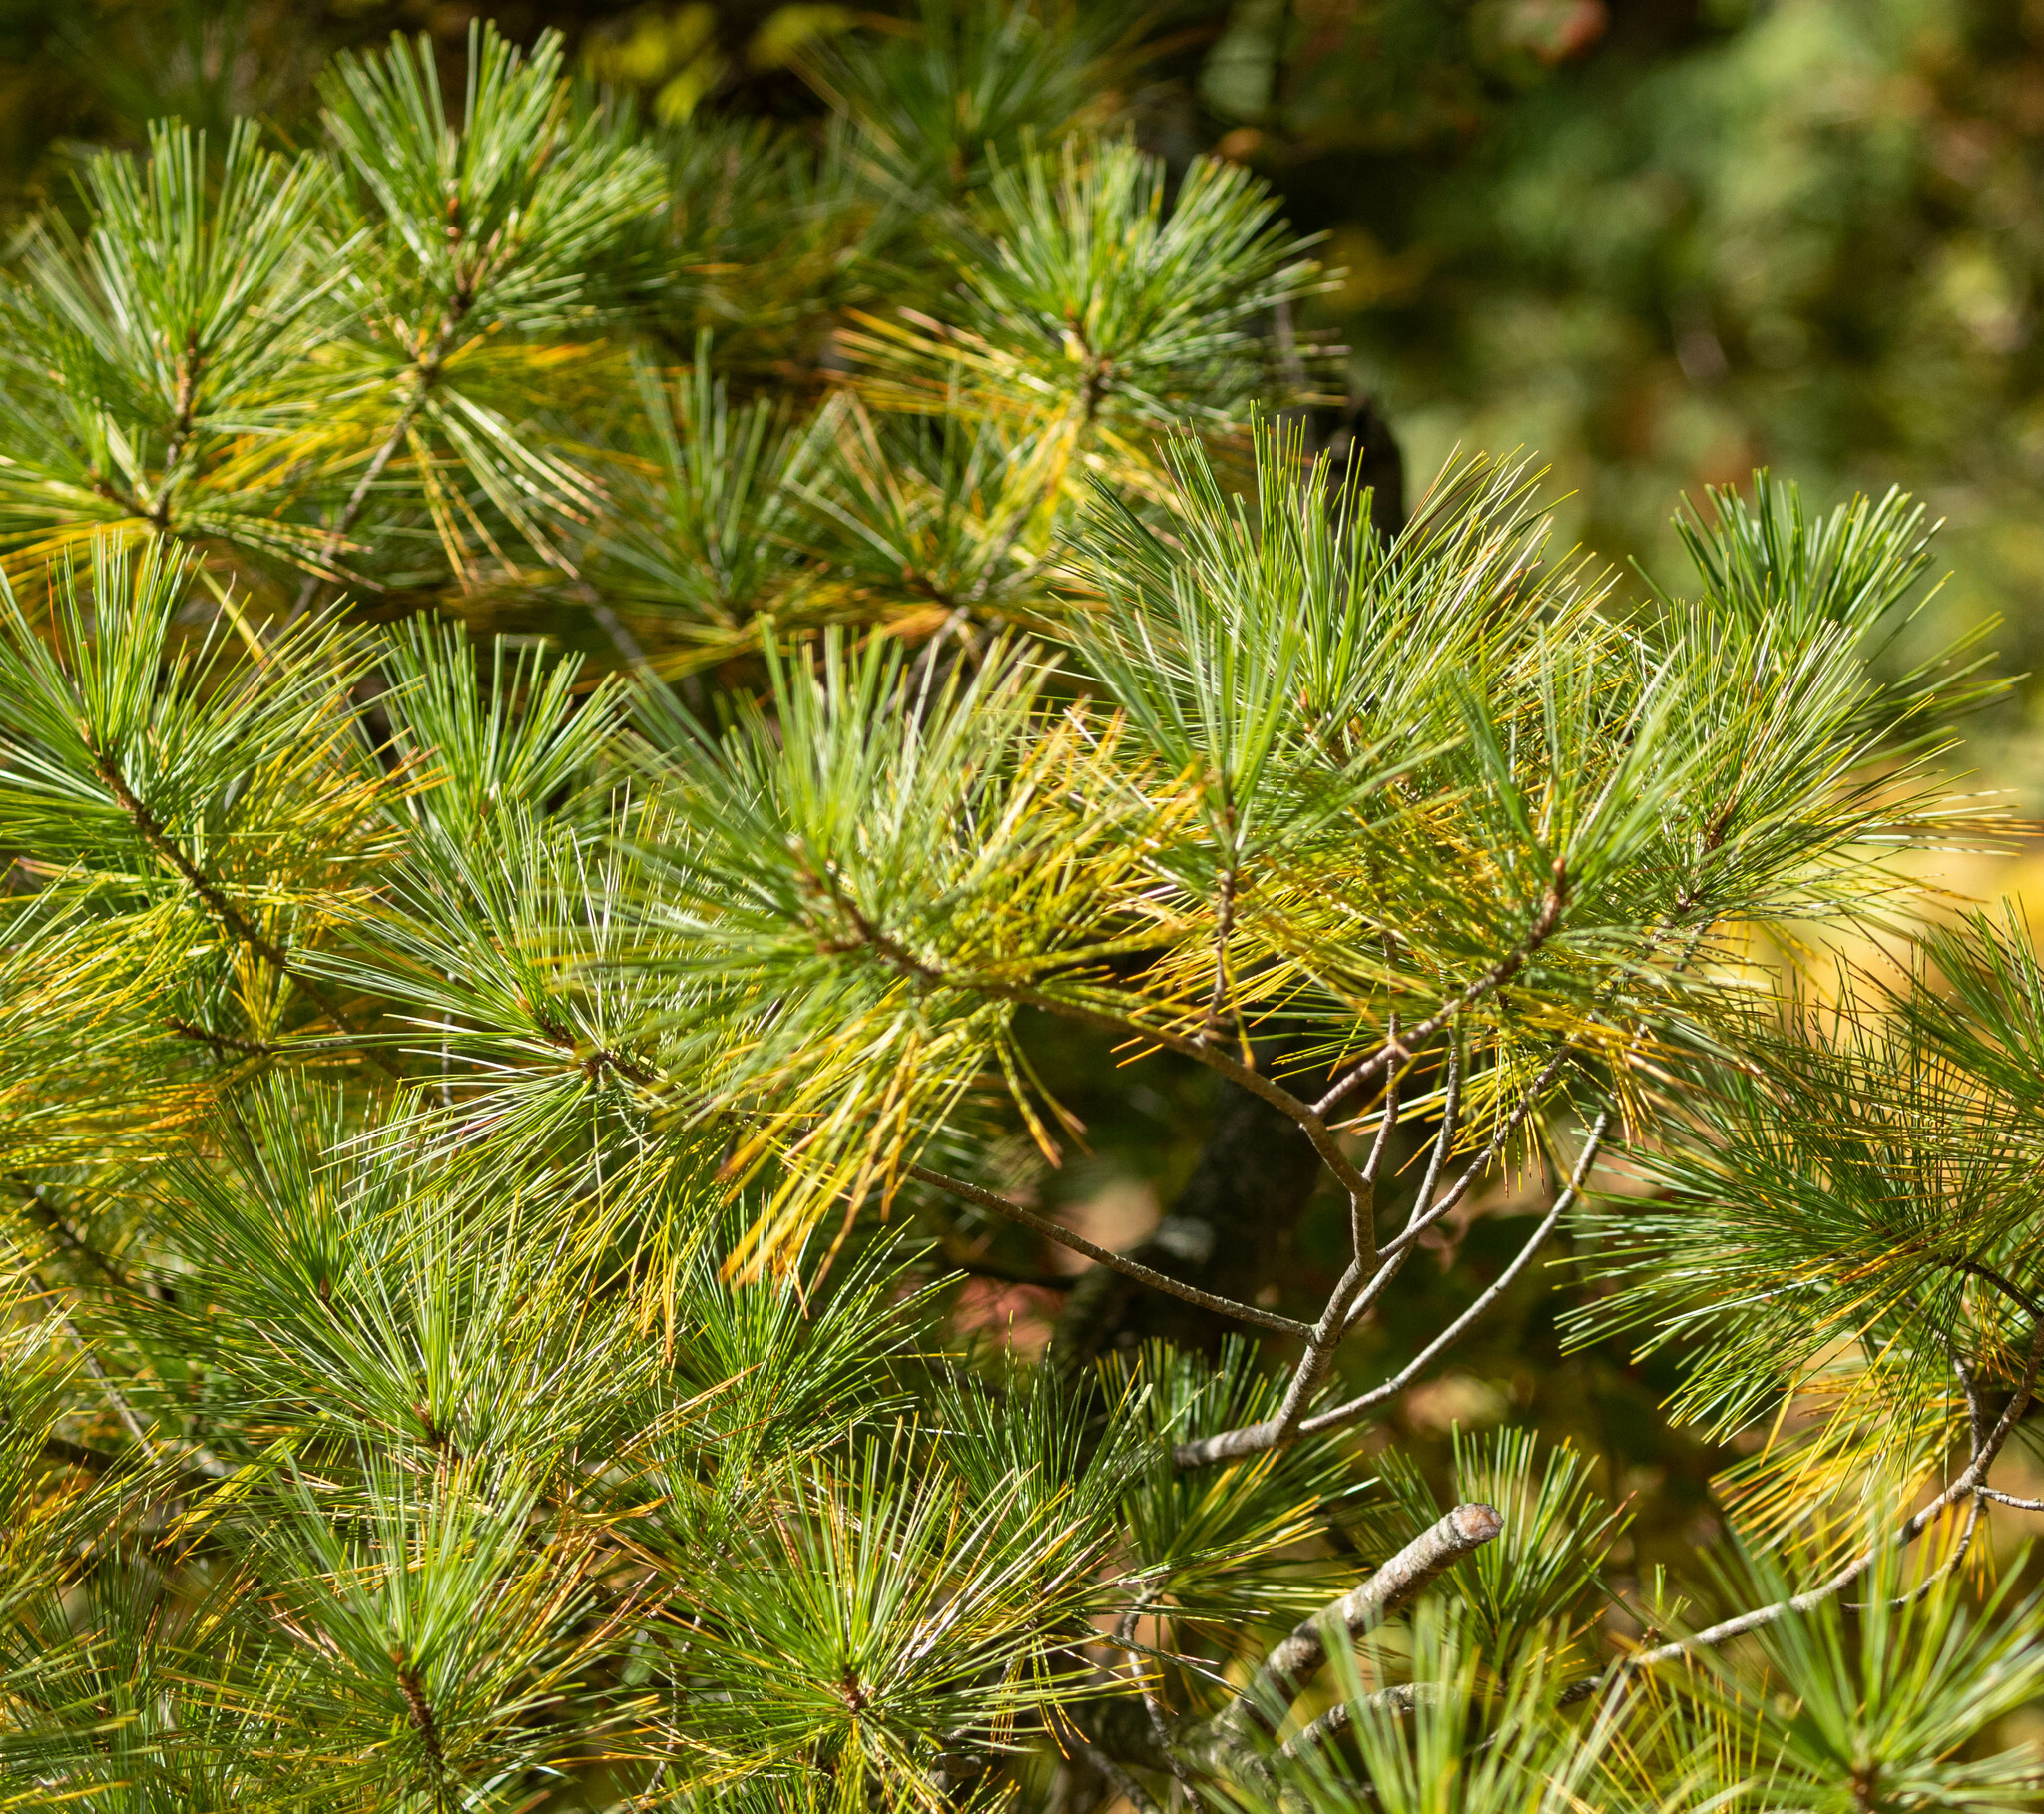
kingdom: Plantae
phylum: Tracheophyta
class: Pinopsida
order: Pinales
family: Pinaceae
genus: Pinus
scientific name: Pinus strobus
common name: Weymouth pine
